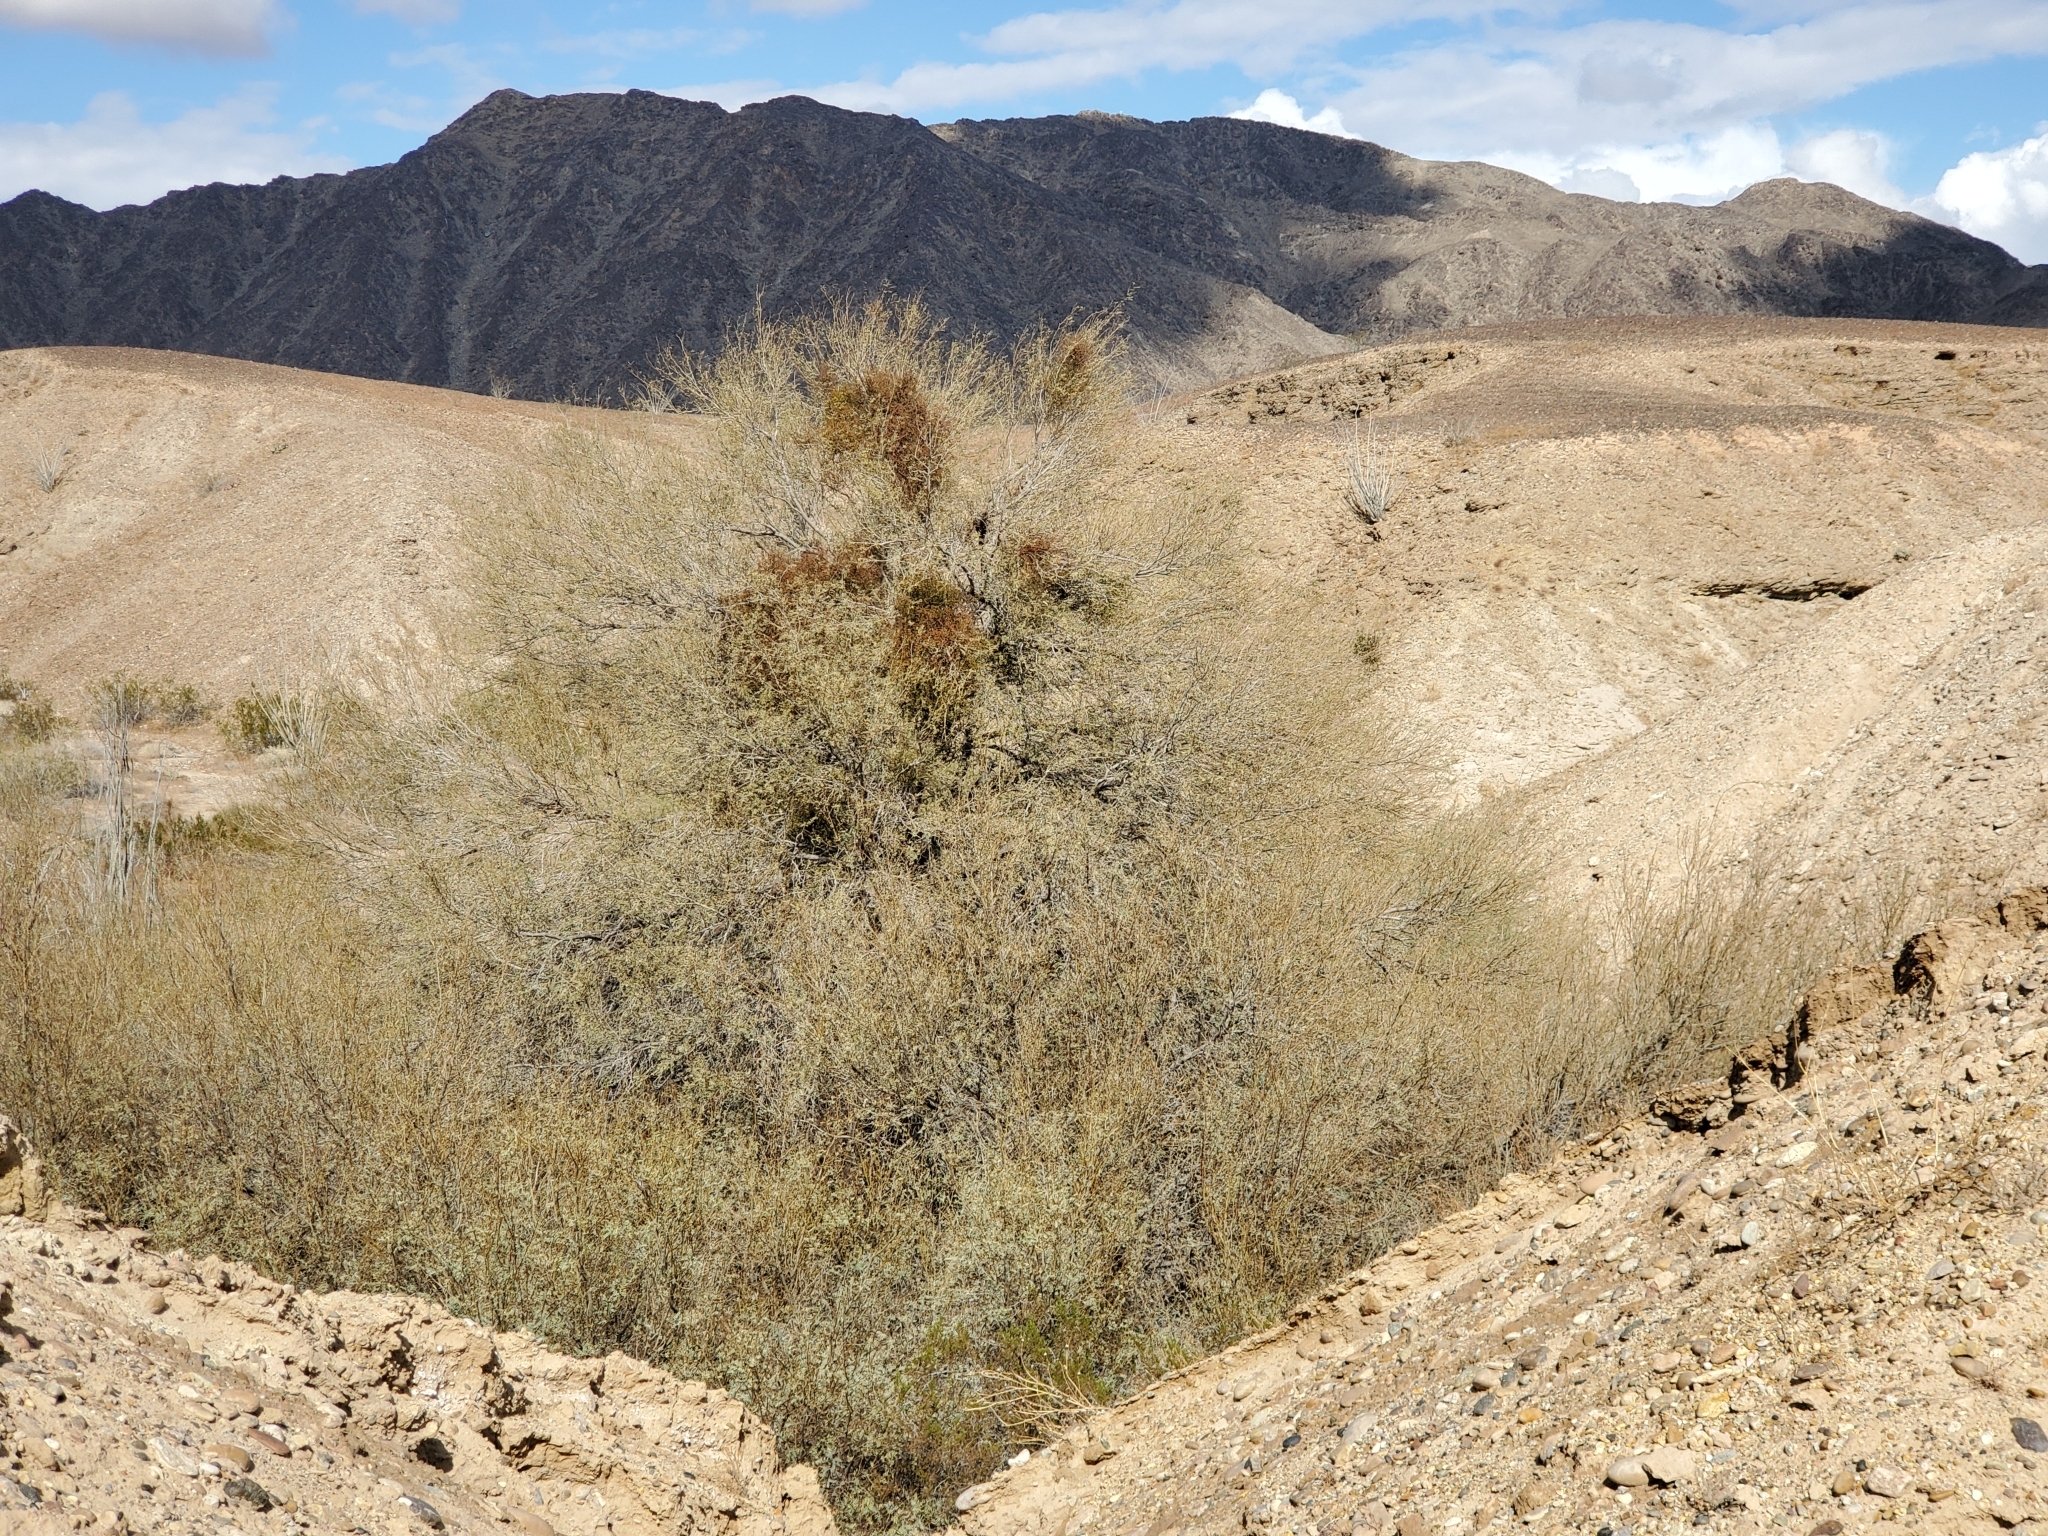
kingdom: Plantae
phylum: Tracheophyta
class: Magnoliopsida
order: Fabales
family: Fabaceae
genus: Prosopis
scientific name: Prosopis pubescens
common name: Screw-bean
